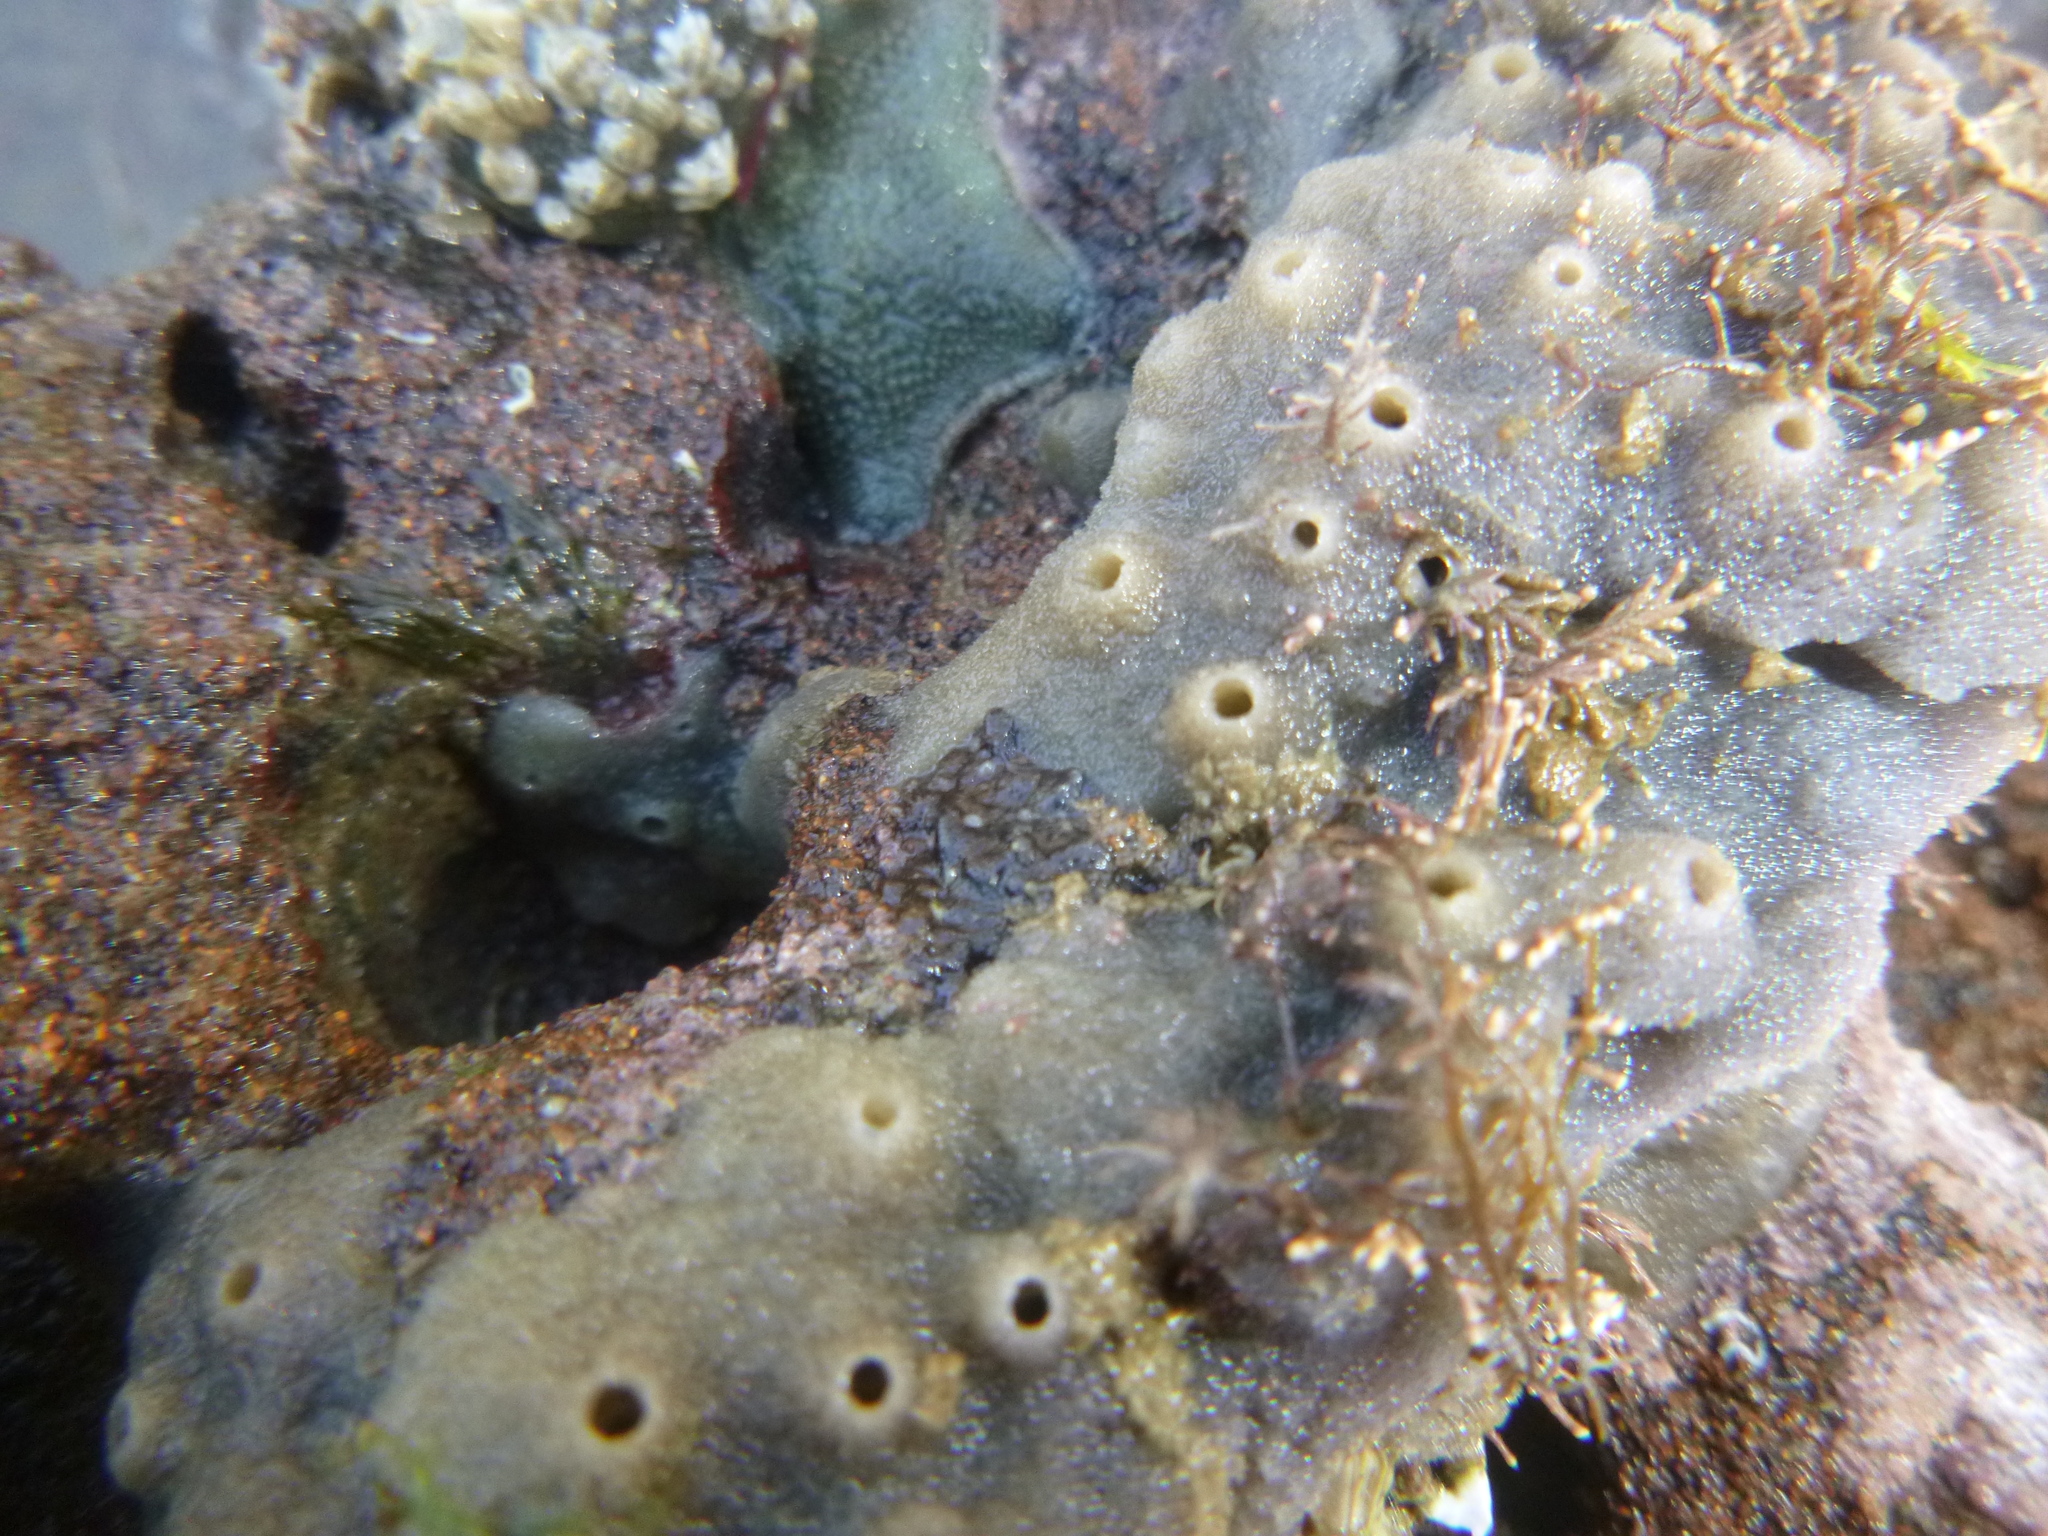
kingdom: Animalia
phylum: Porifera
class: Demospongiae
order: Haplosclerida
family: Chalinidae
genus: Haliclona
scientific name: Haliclona venustina
